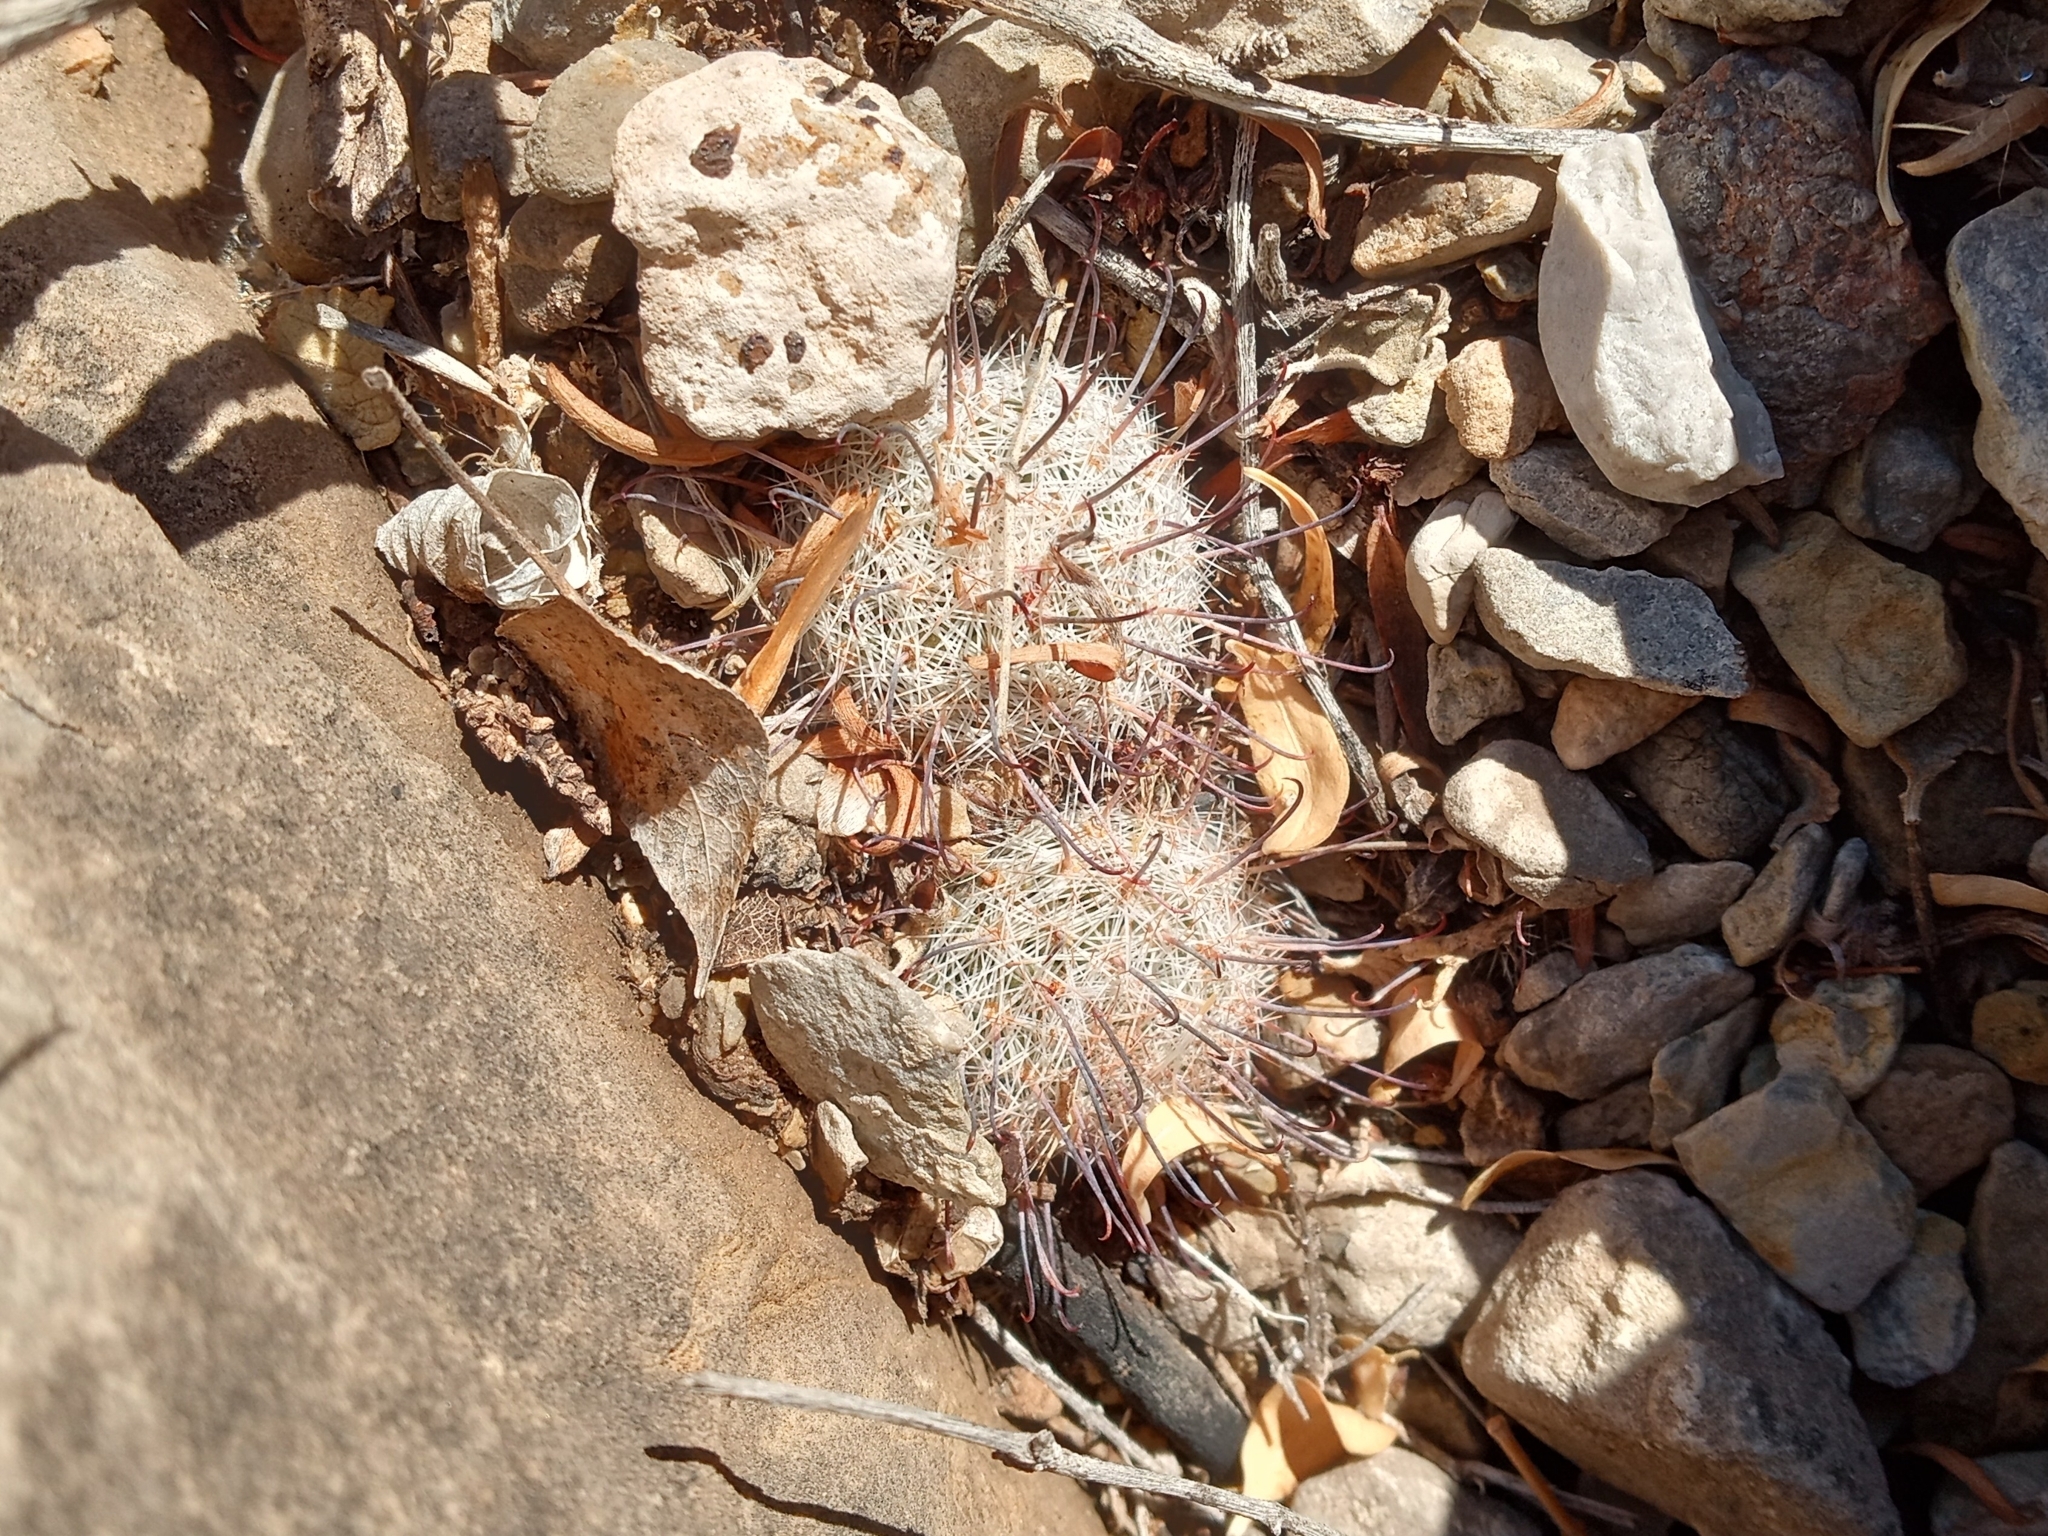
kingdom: Plantae
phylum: Tracheophyta
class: Magnoliopsida
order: Caryophyllales
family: Cactaceae
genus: Cochemiea
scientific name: Cochemiea grahamii
